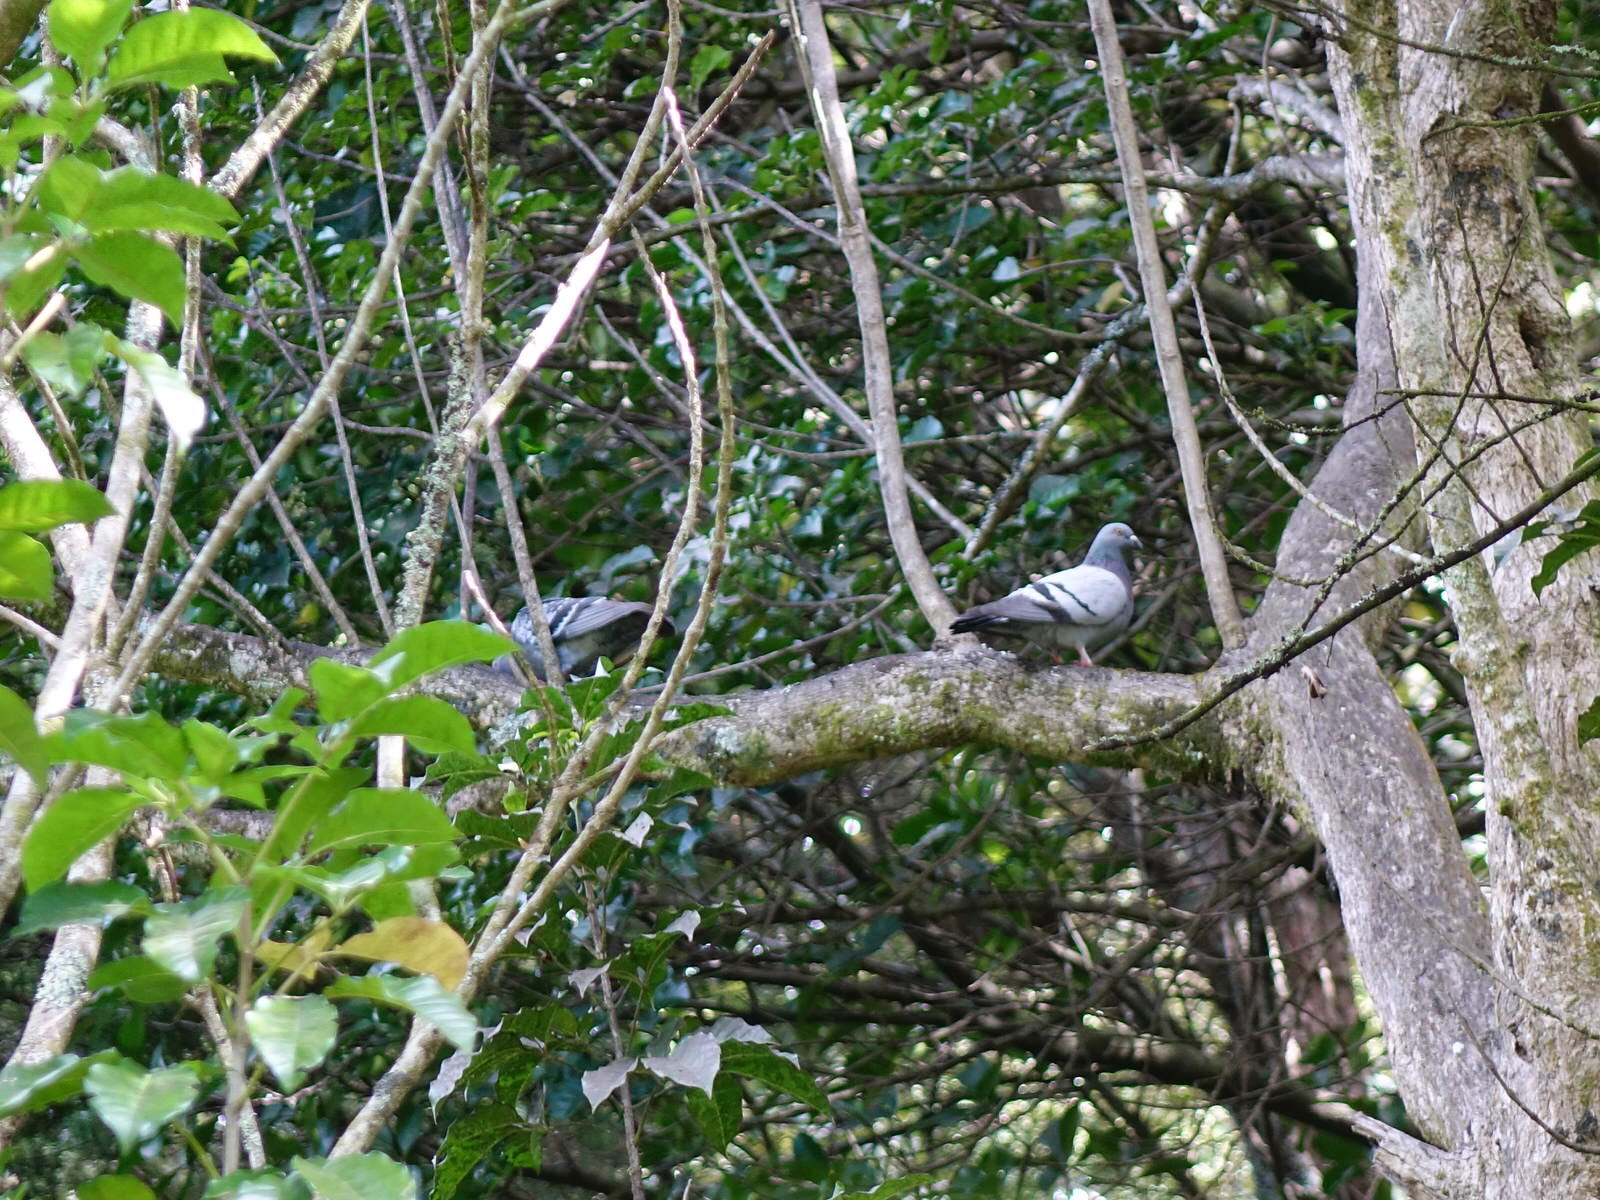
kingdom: Animalia
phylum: Chordata
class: Aves
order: Columbiformes
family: Columbidae
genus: Columba
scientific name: Columba livia
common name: Rock pigeon
